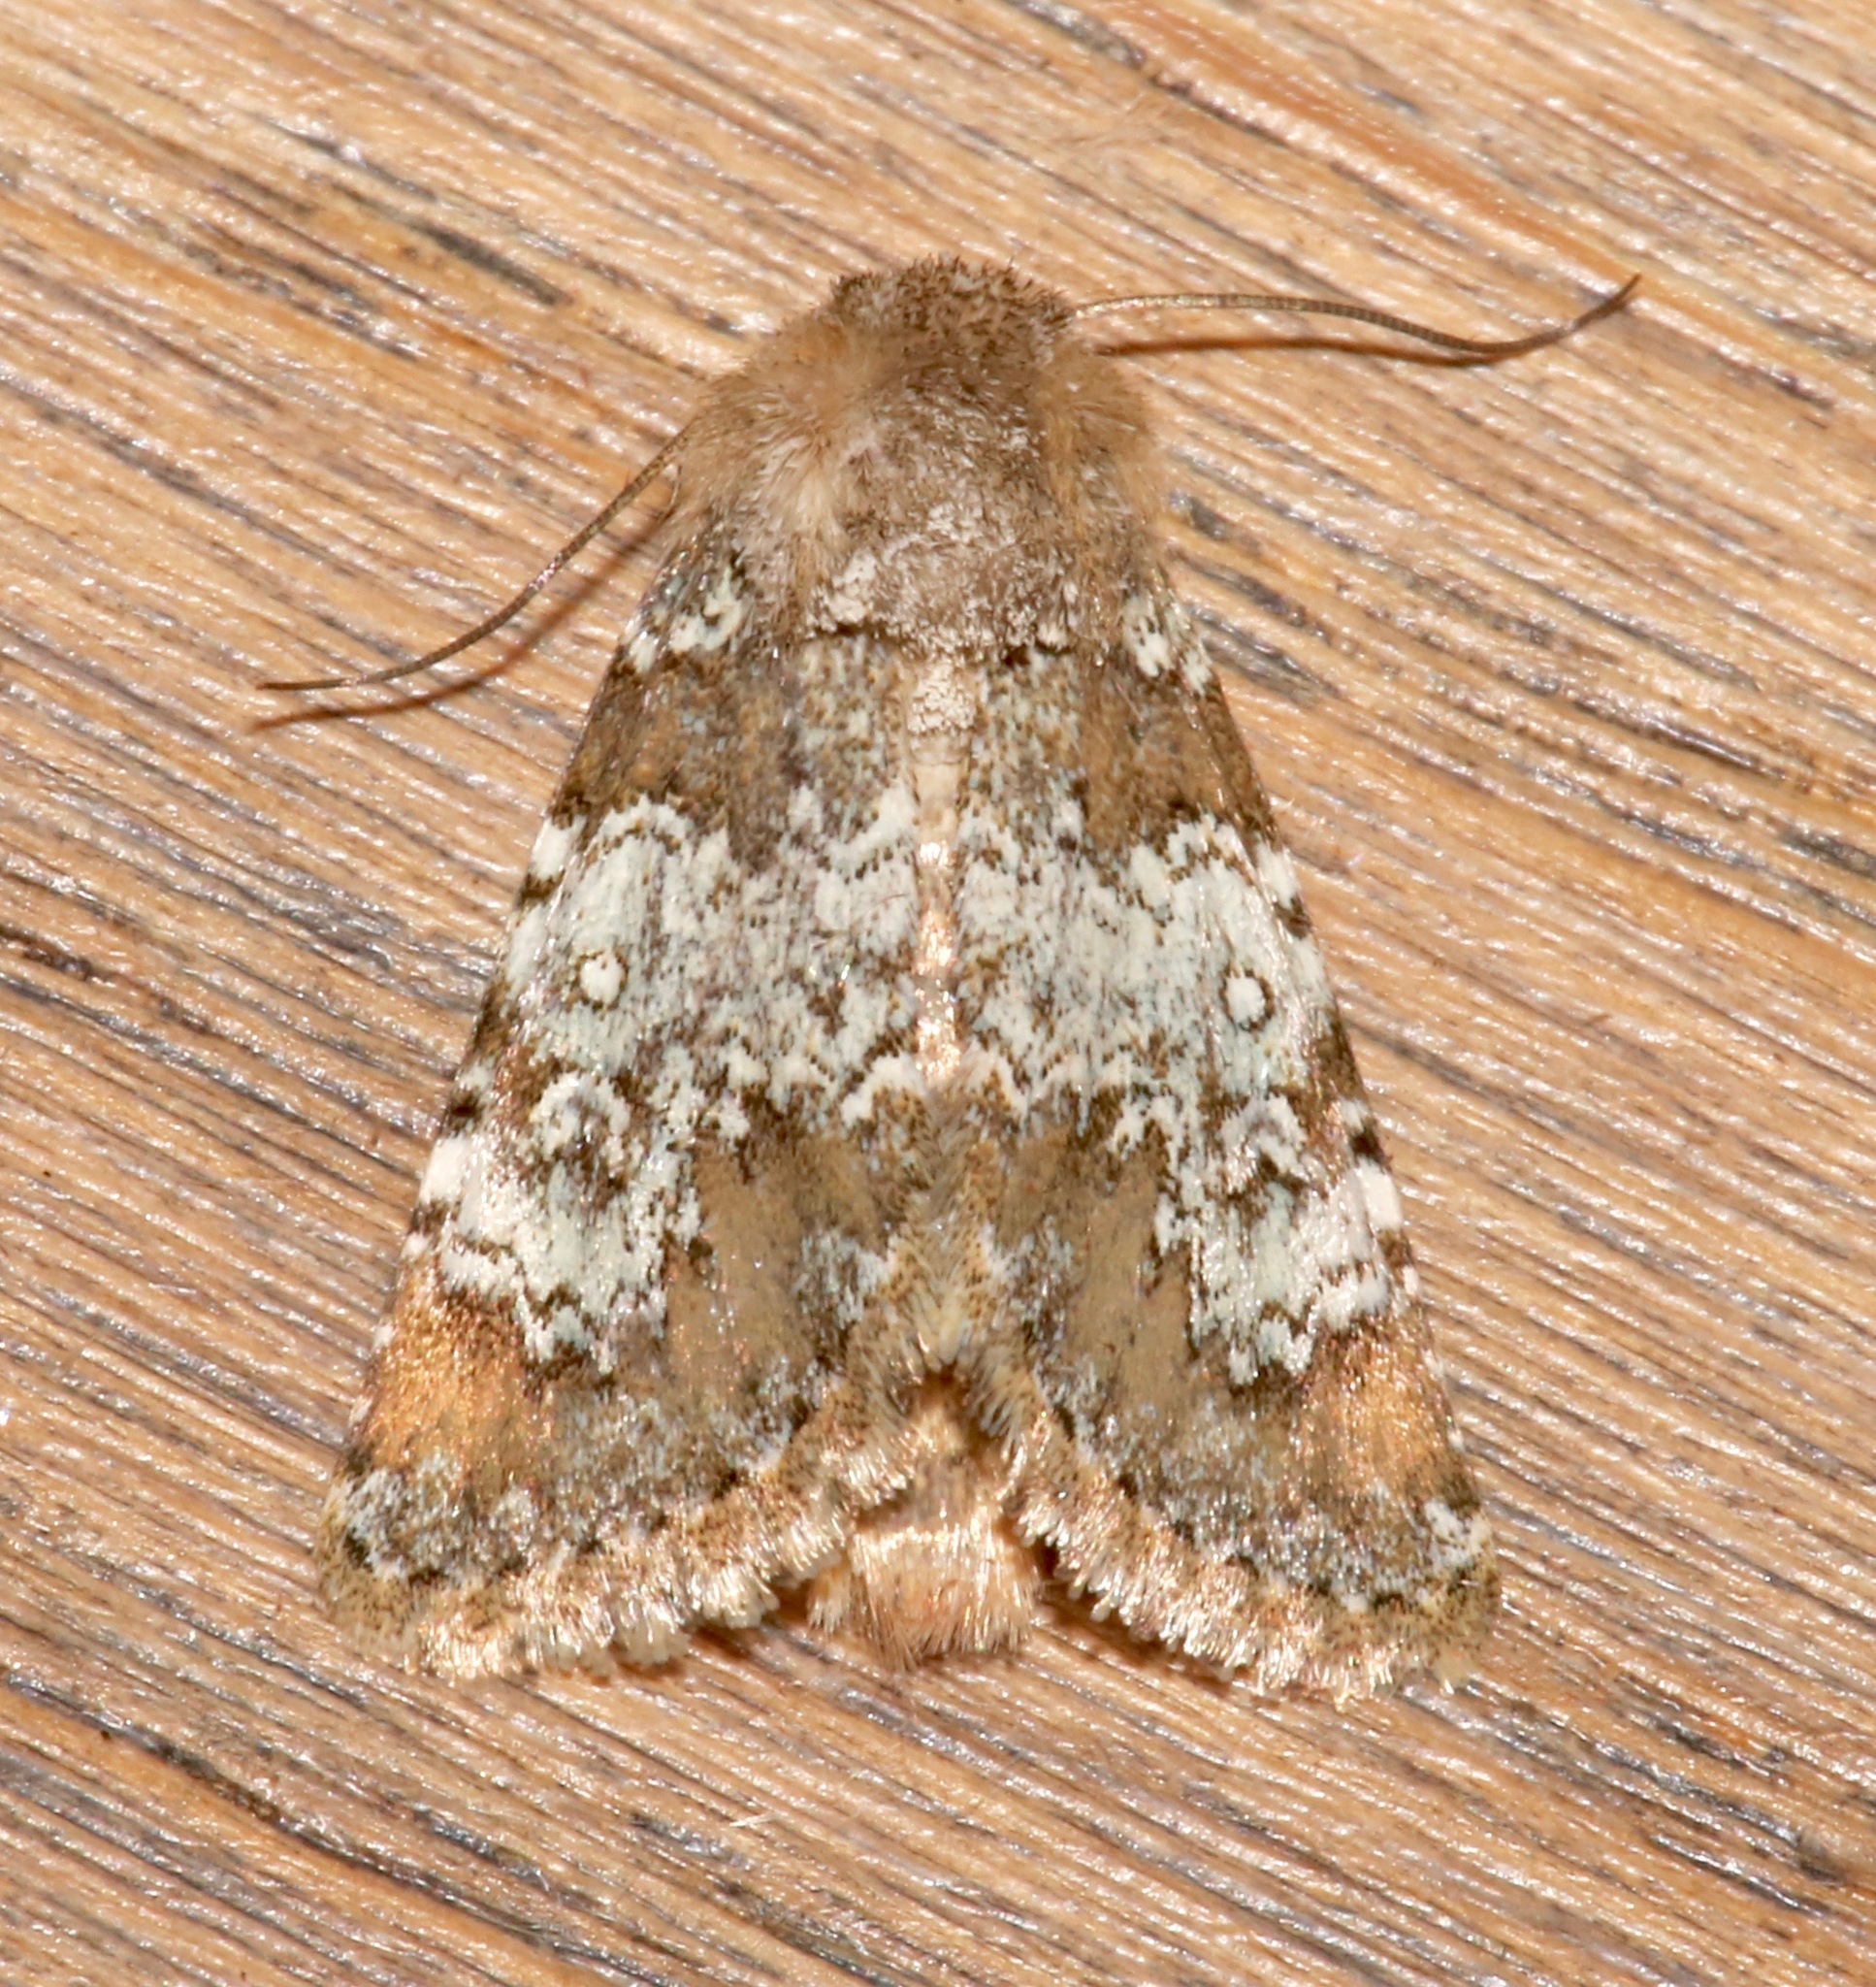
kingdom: Animalia
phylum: Arthropoda
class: Insecta
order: Lepidoptera
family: Noctuidae
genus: Hemibryomima
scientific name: Hemibryomima chryselectra
